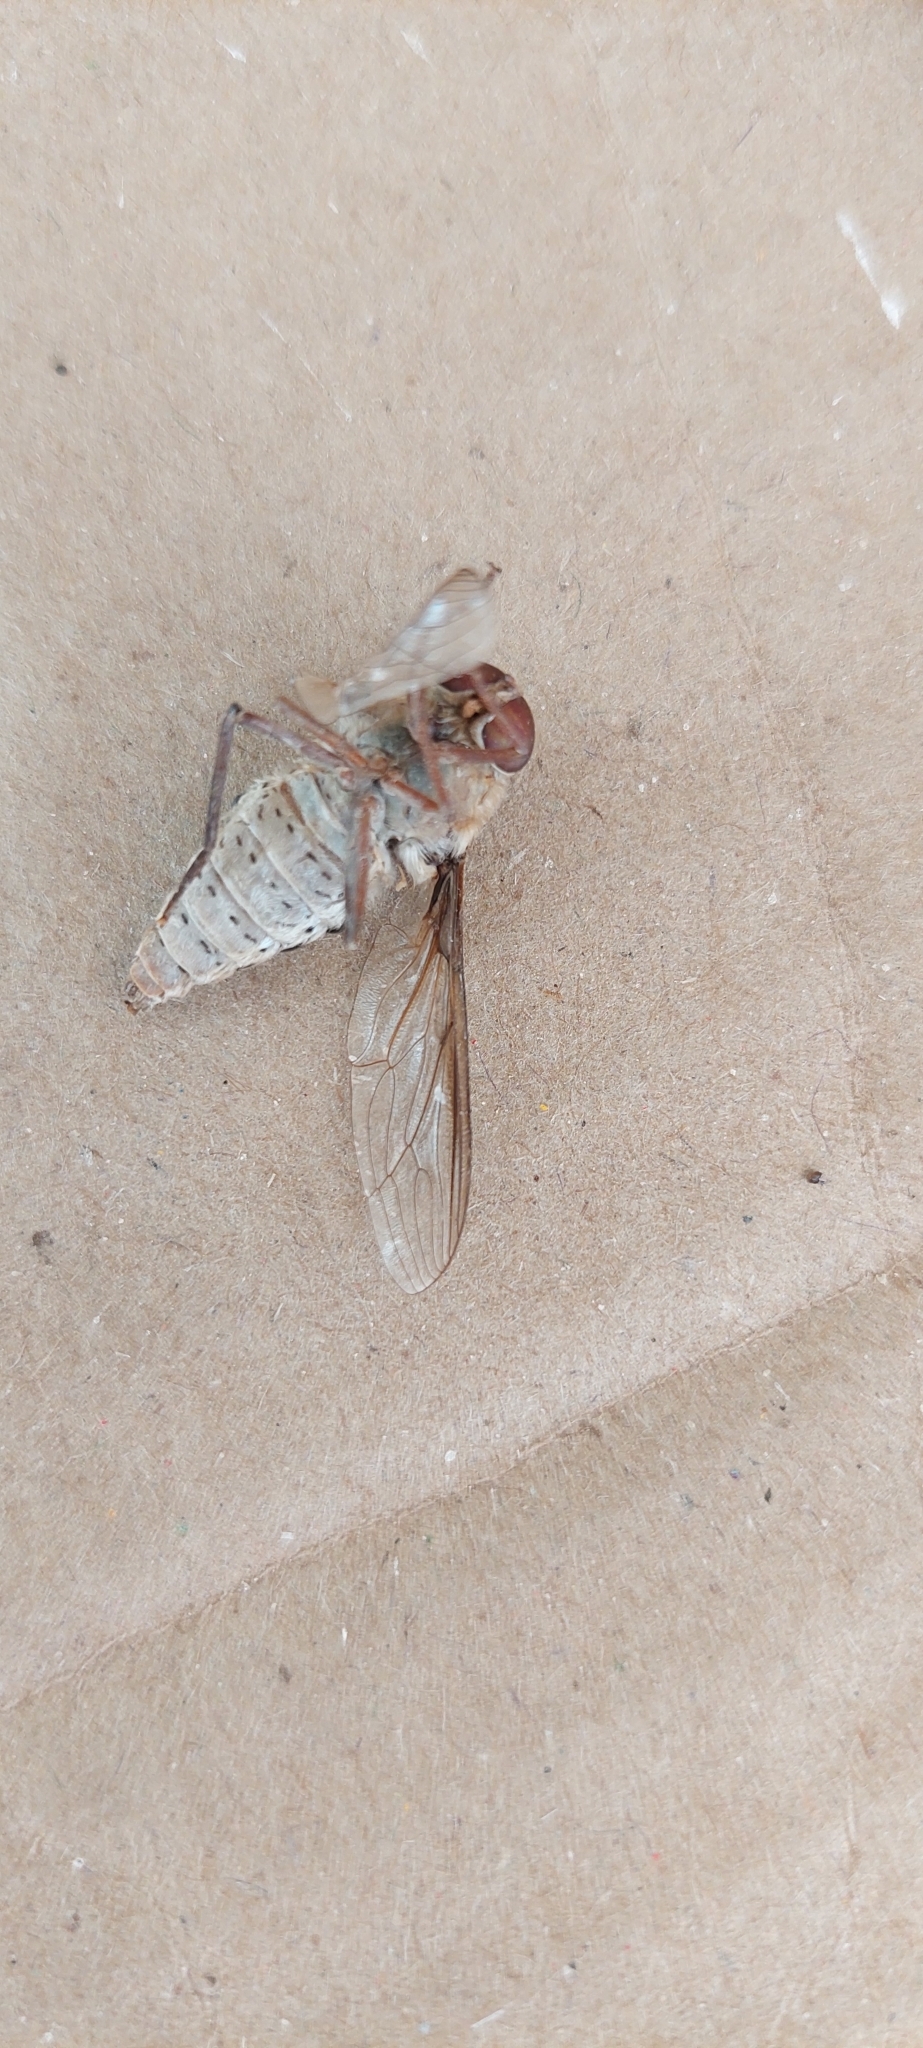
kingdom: Animalia
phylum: Arthropoda
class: Insecta
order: Diptera
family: Nemestrinidae
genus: Hirmoneura
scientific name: Hirmoneura ester
